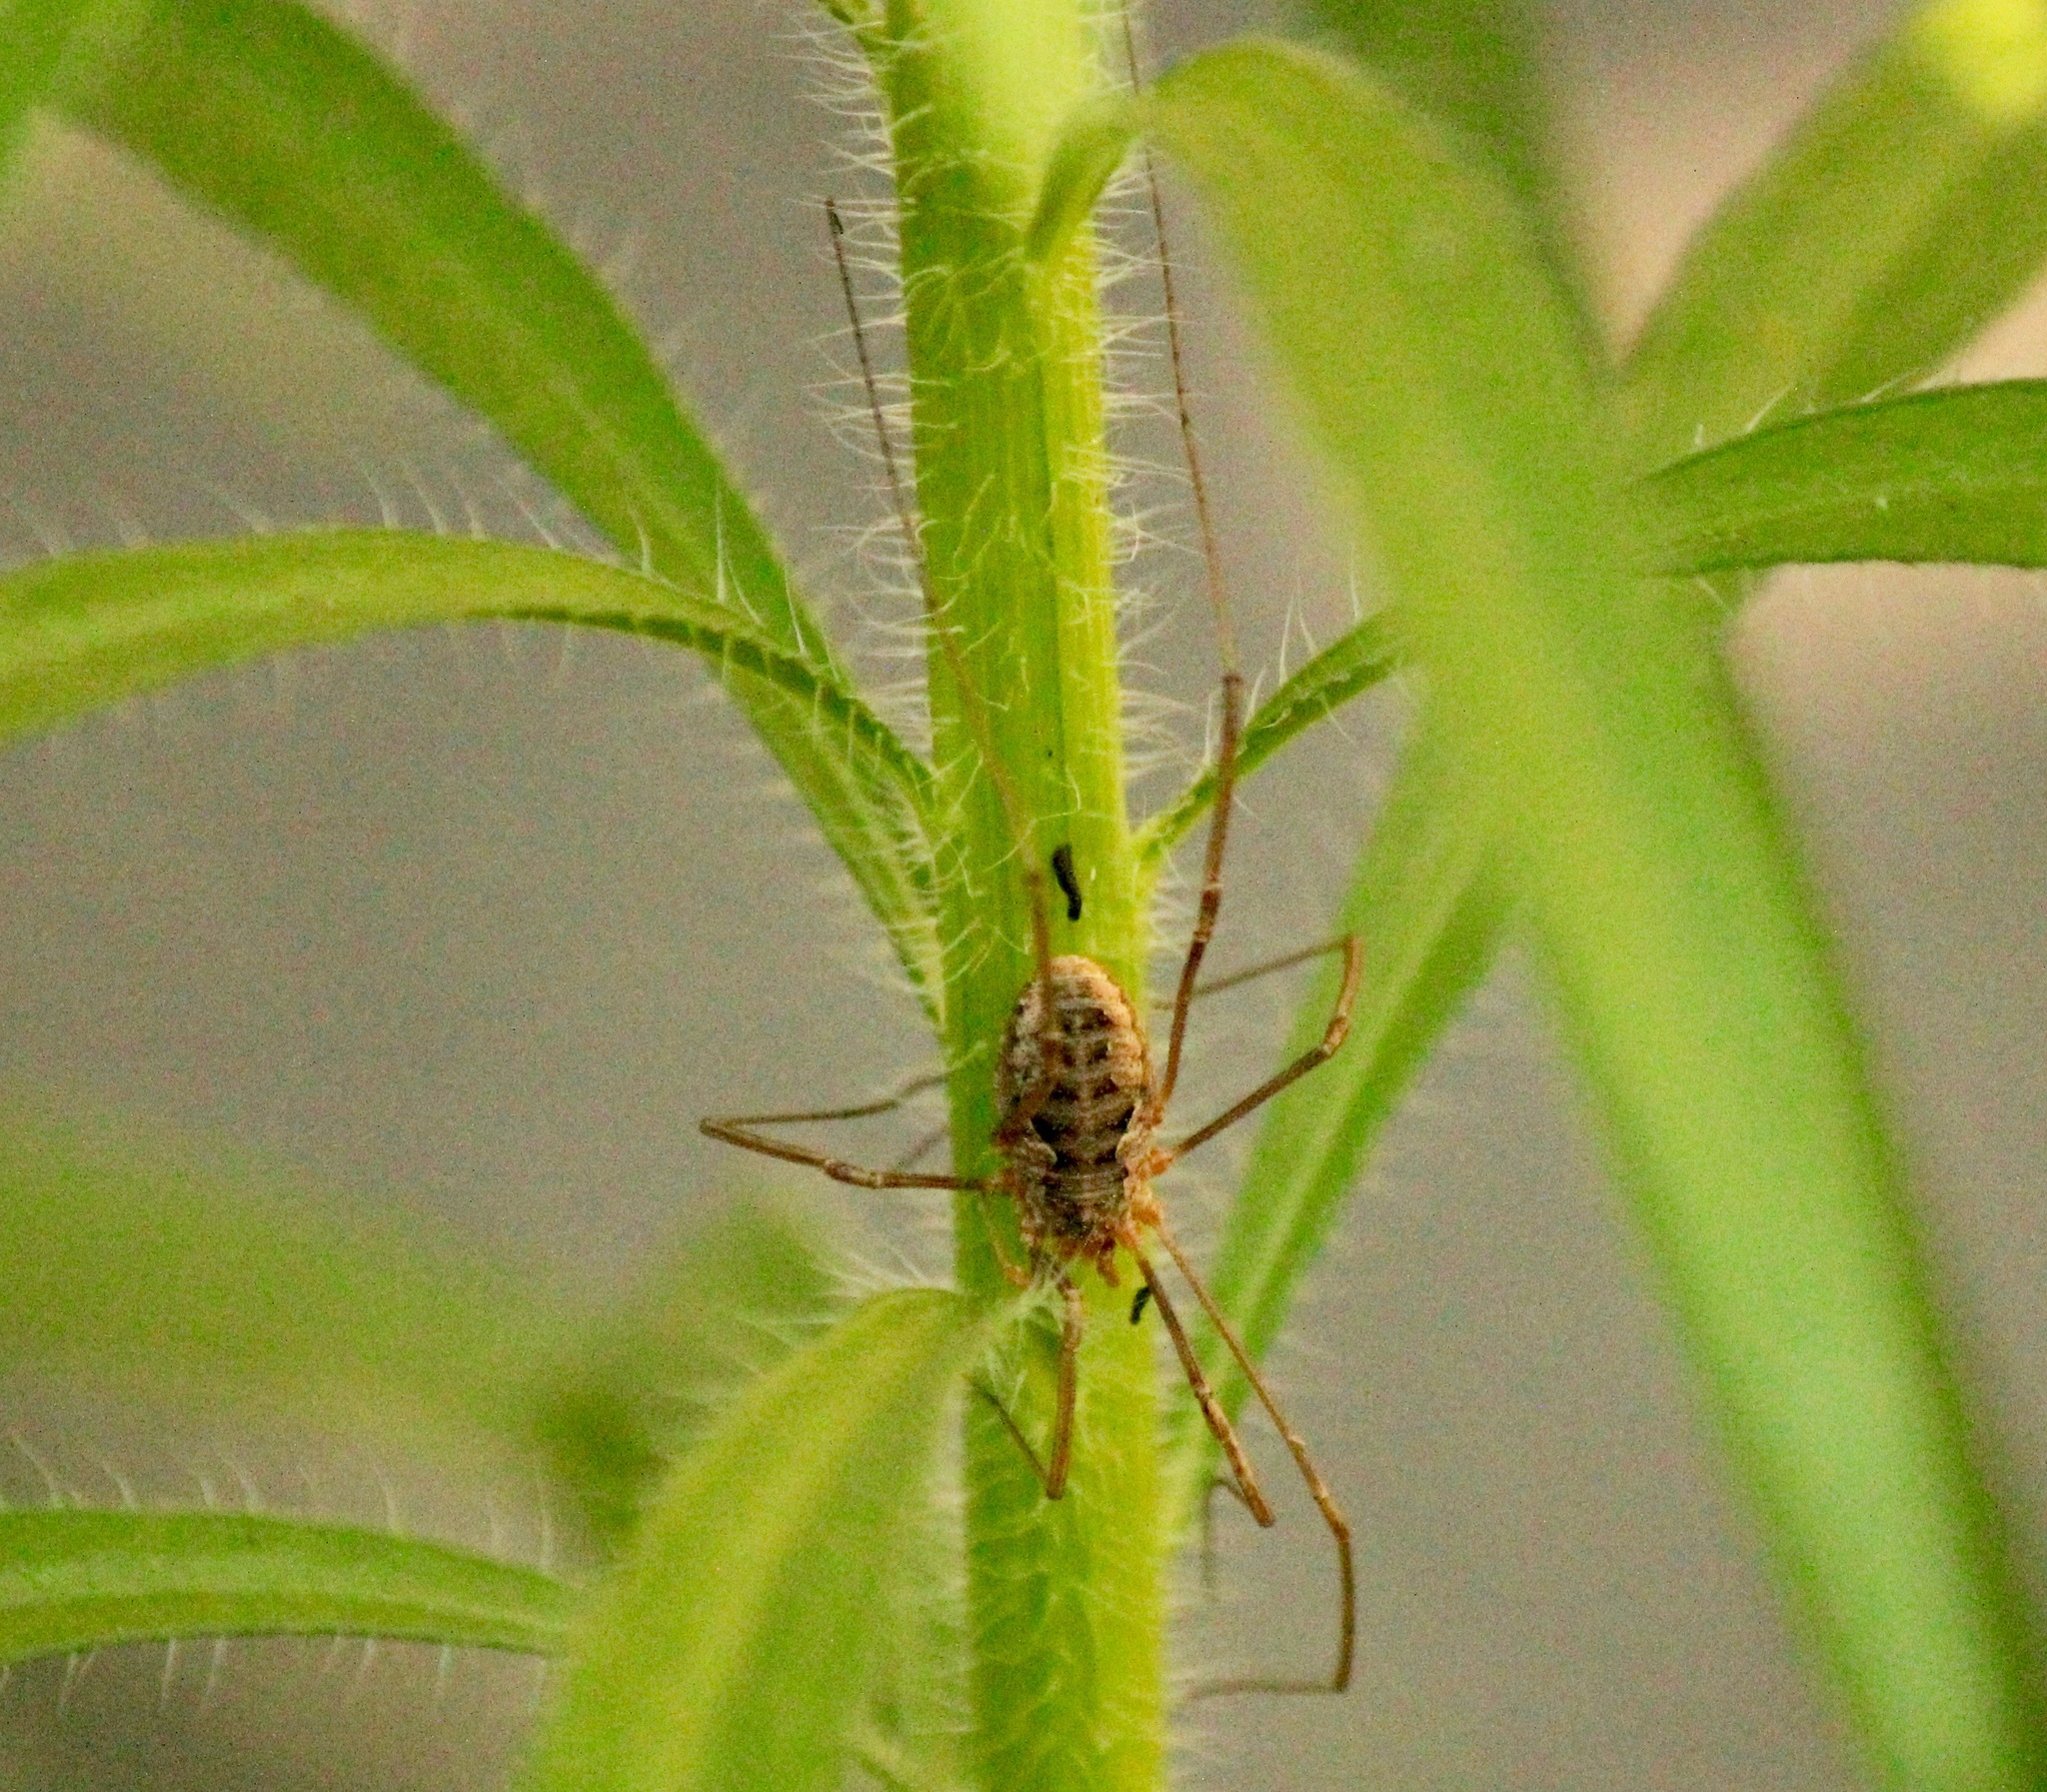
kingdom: Animalia
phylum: Arthropoda
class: Arachnida
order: Opiliones
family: Phalangiidae
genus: Phalangium
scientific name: Phalangium opilio
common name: Daddy longleg
